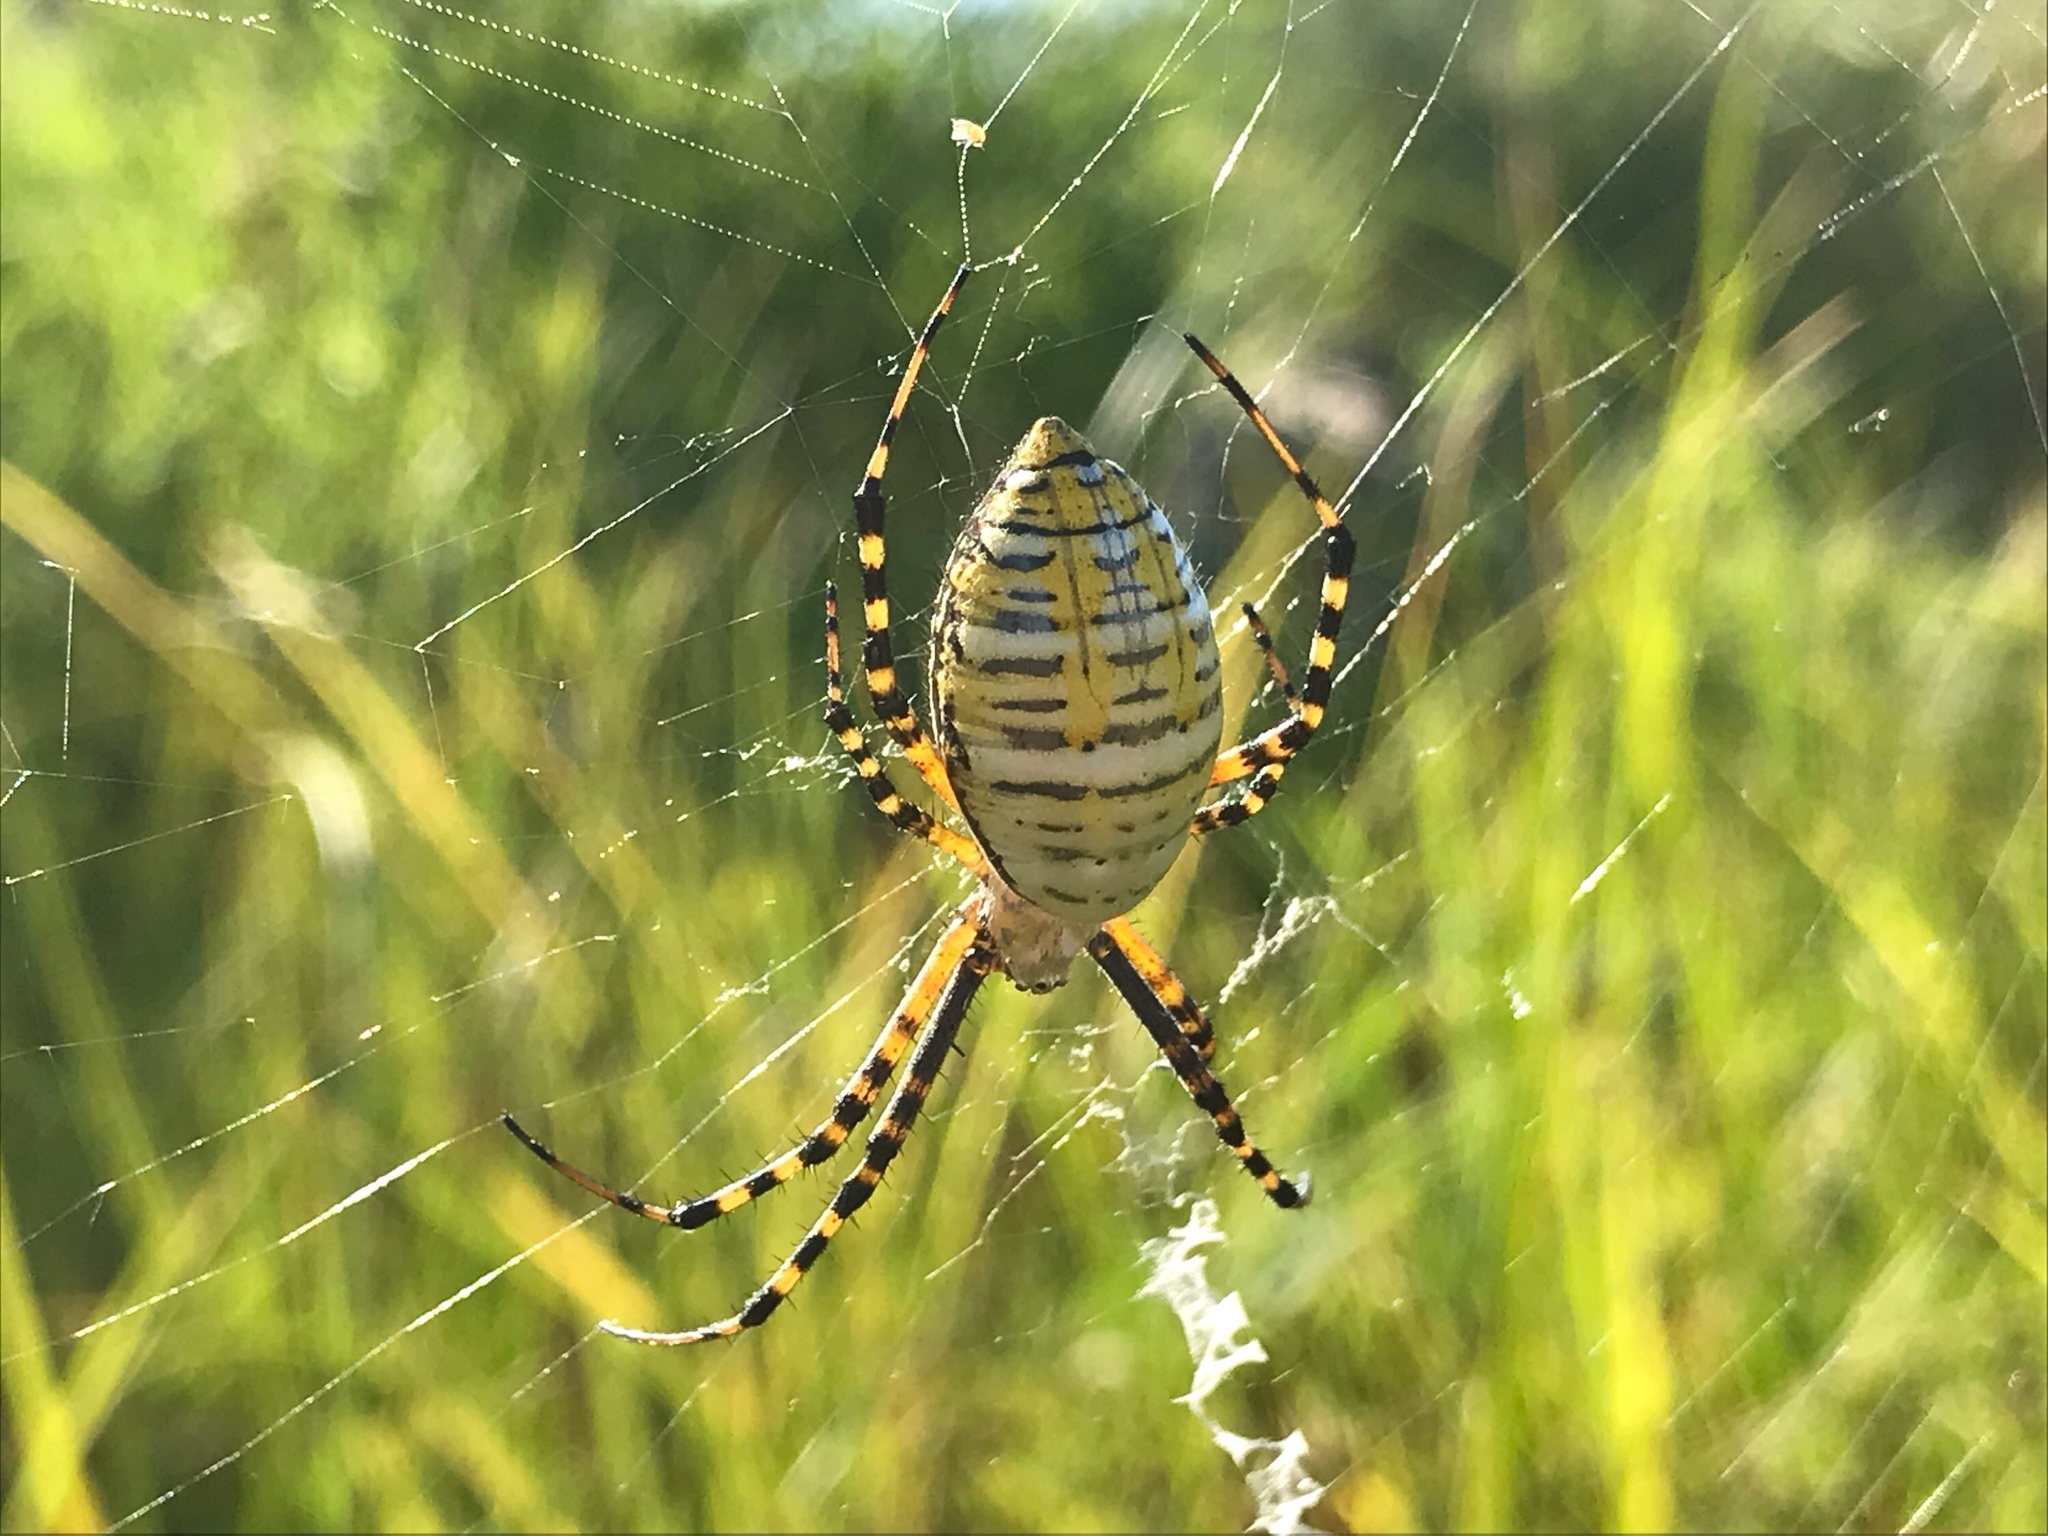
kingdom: Animalia
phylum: Arthropoda
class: Arachnida
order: Araneae
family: Araneidae
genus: Argiope
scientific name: Argiope trifasciata
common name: Banded garden spider
